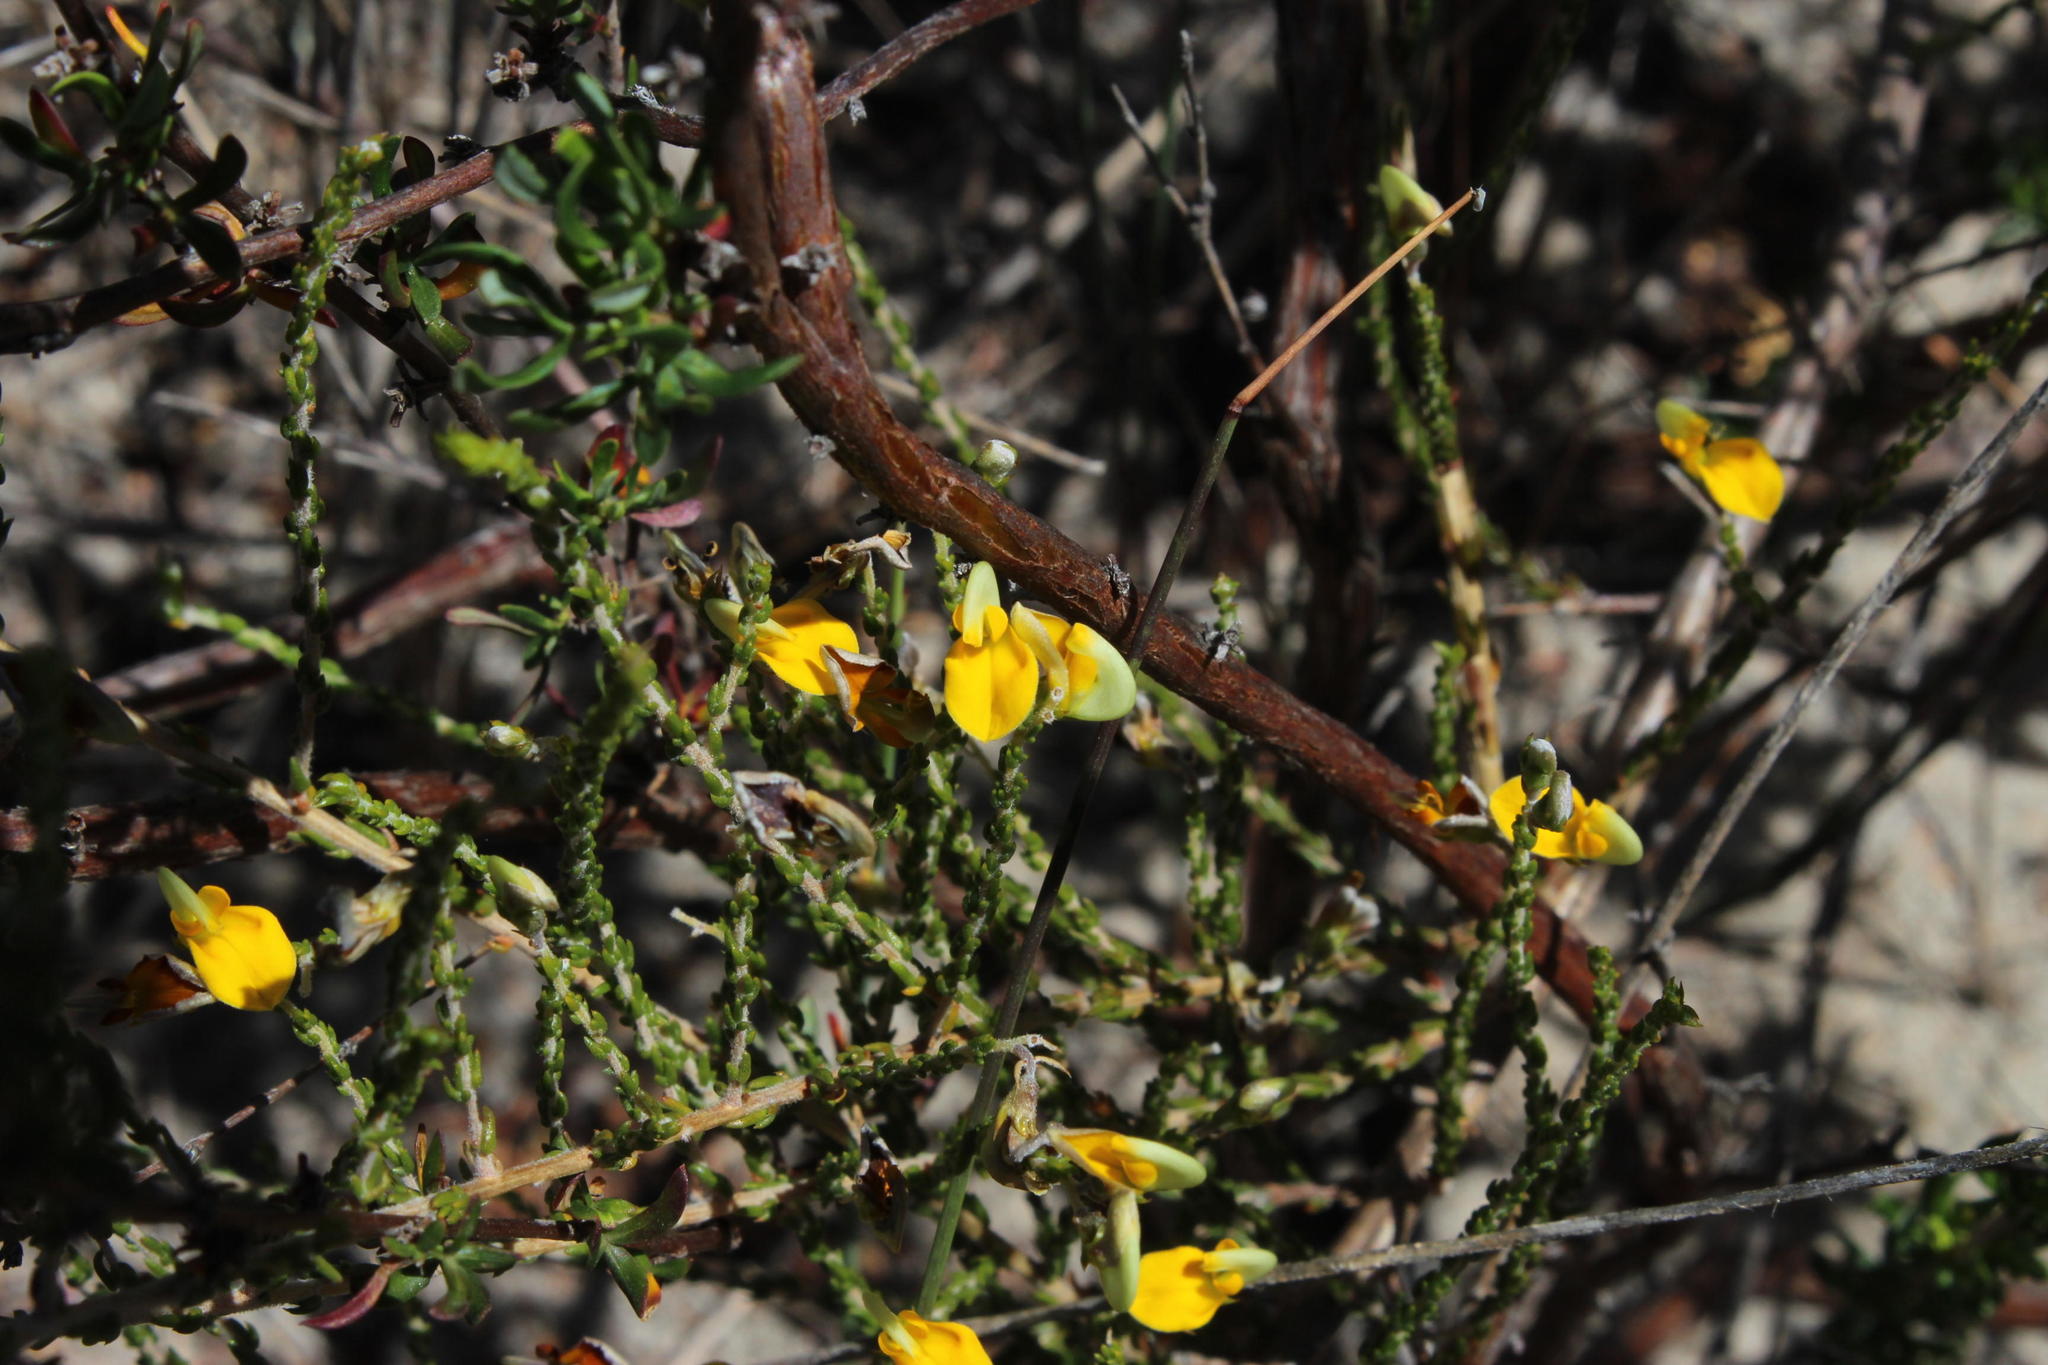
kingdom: Plantae
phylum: Tracheophyta
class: Magnoliopsida
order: Fabales
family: Fabaceae
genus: Aspalathus
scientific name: Aspalathus microphylla
